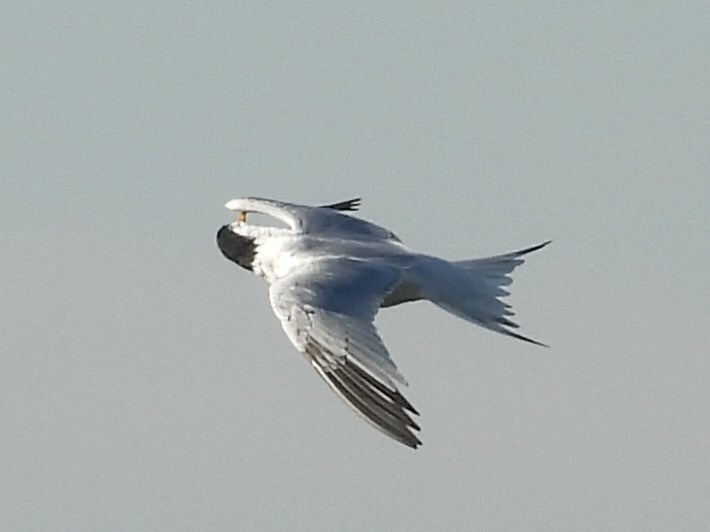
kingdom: Animalia
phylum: Chordata
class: Aves
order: Charadriiformes
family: Laridae
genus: Thalasseus
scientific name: Thalasseus elegans
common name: Elegant tern
